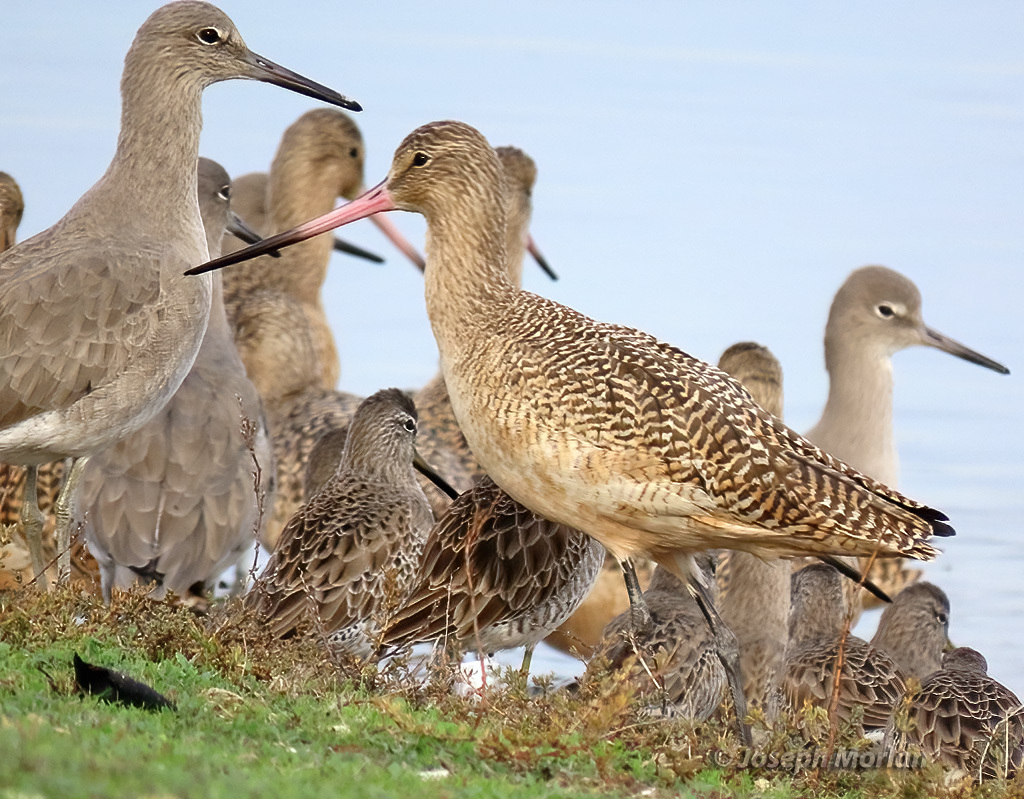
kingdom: Animalia
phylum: Chordata
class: Aves
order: Charadriiformes
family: Scolopacidae
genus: Limosa
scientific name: Limosa fedoa
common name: Marbled godwit
